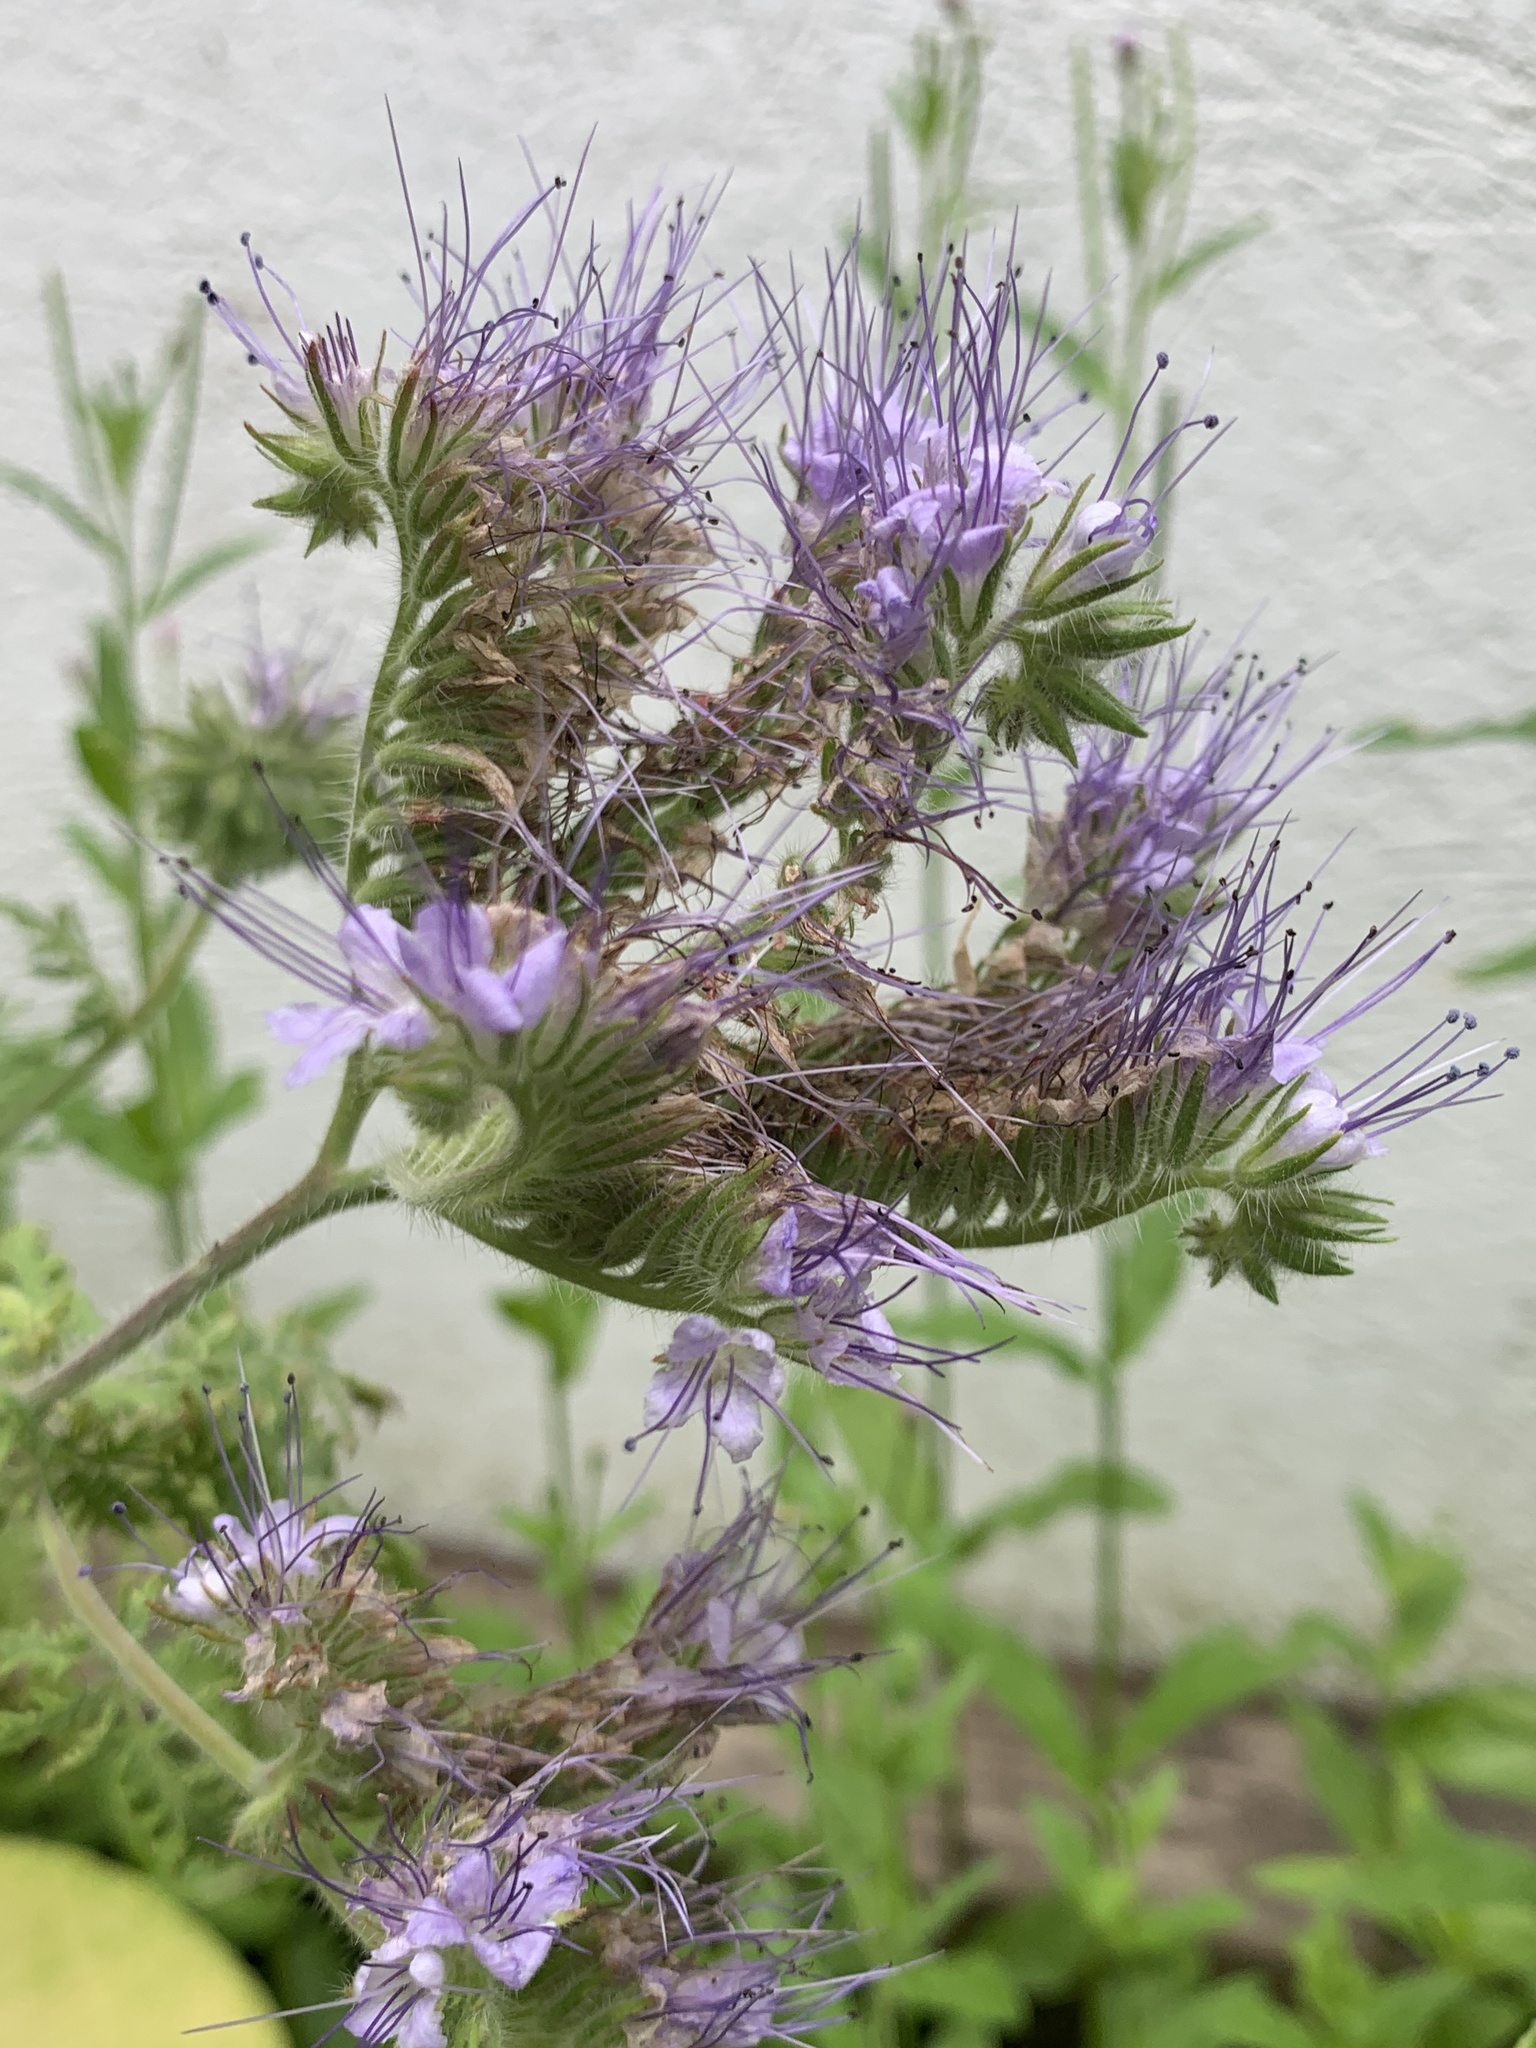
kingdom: Plantae
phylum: Tracheophyta
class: Magnoliopsida
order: Boraginales
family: Hydrophyllaceae
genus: Phacelia
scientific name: Phacelia tanacetifolia
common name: Phacelia
